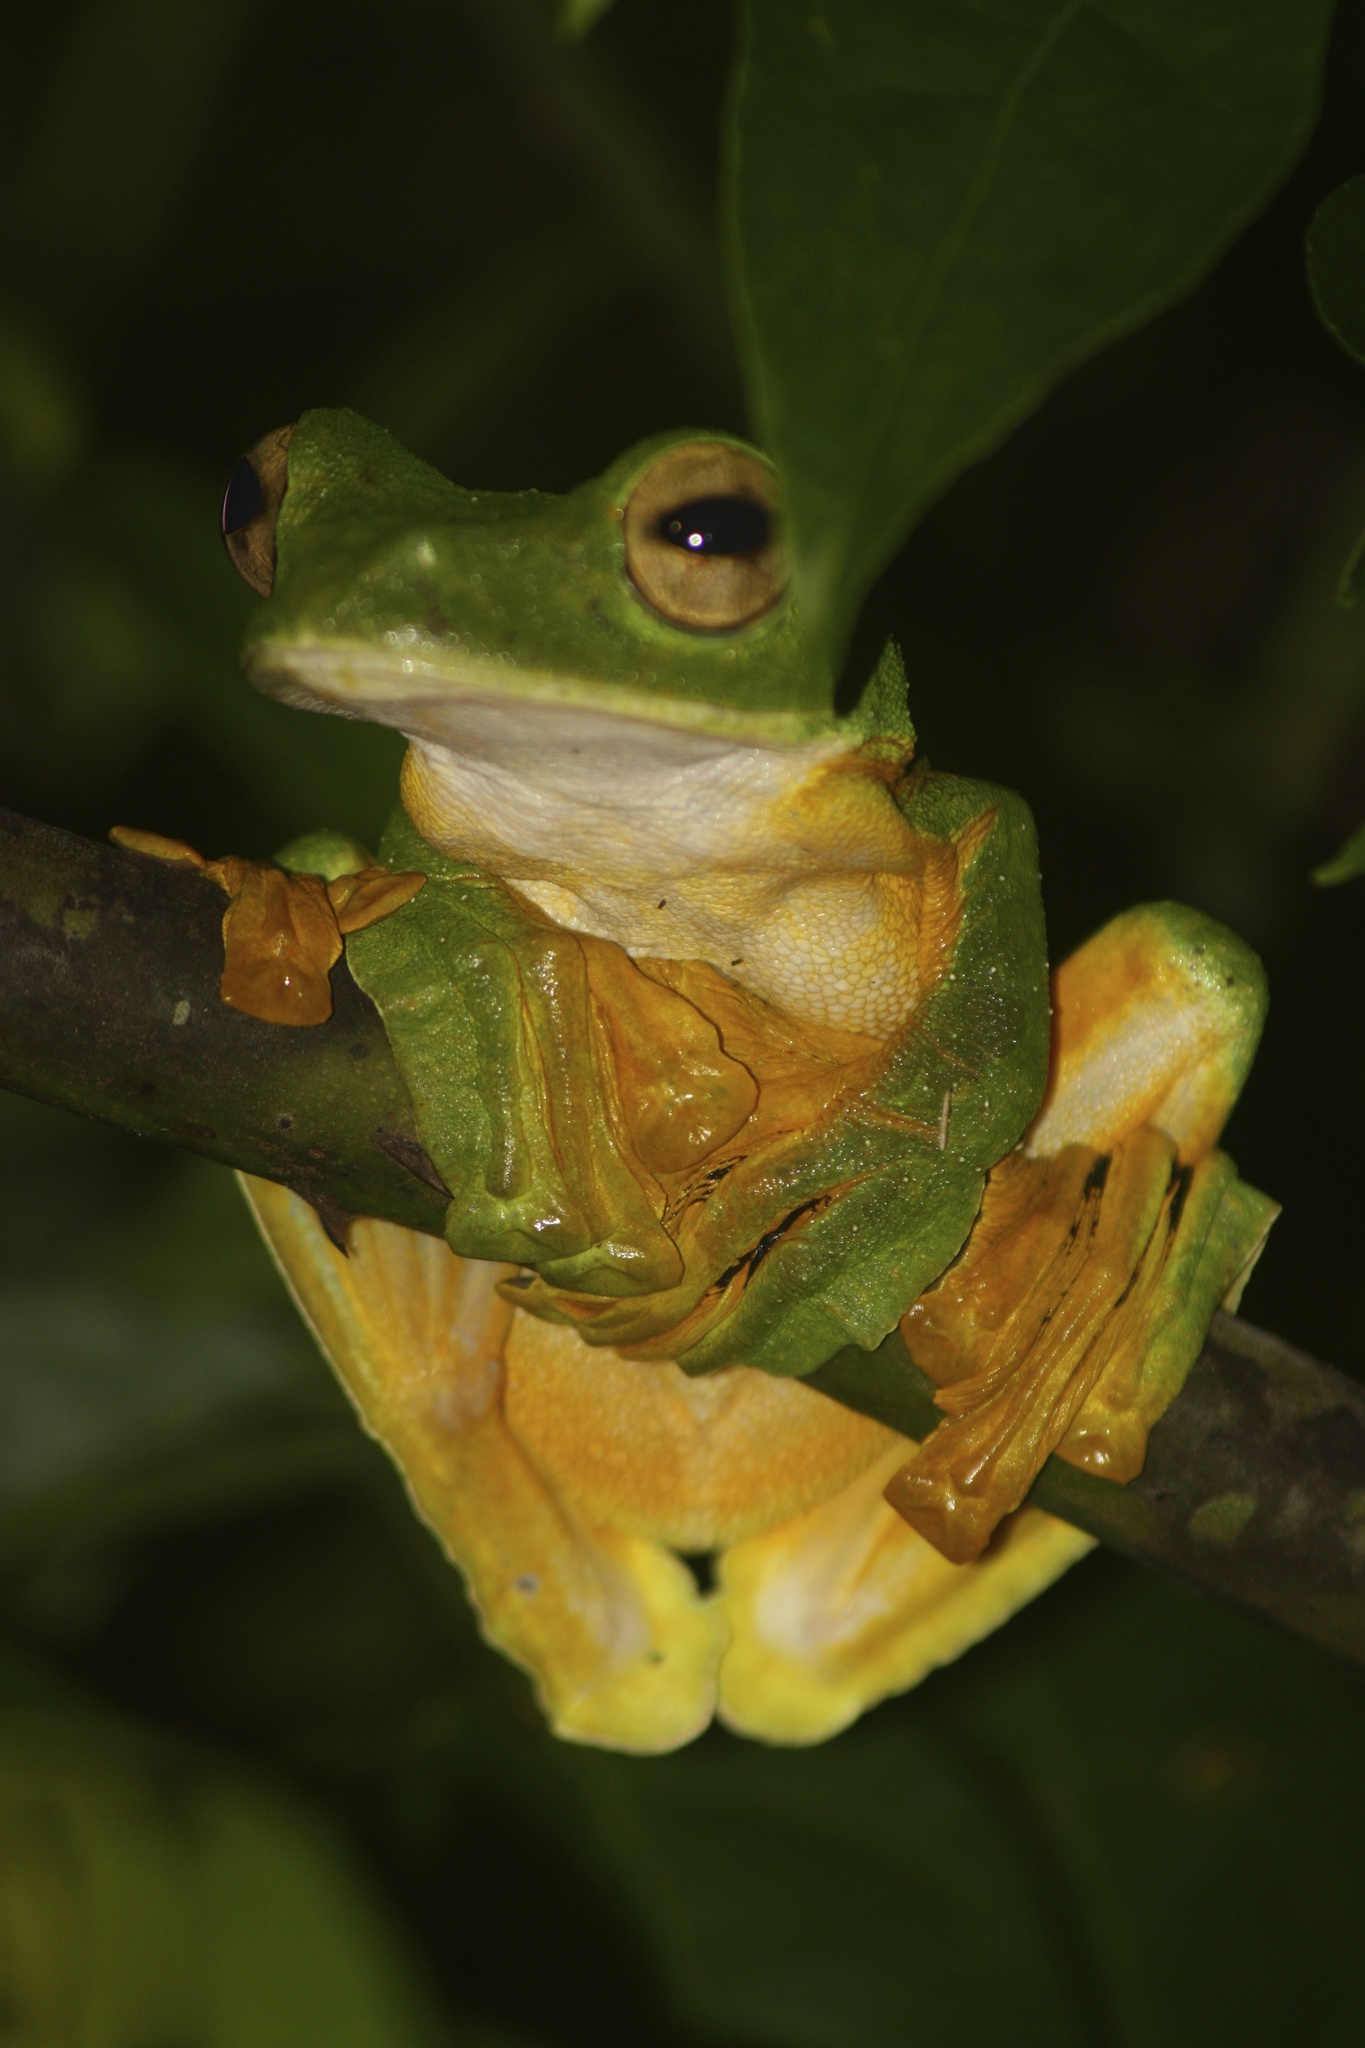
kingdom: Animalia
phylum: Chordata
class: Amphibia
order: Anura
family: Rhacophoridae
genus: Rhacophorus
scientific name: Rhacophorus nigropalmatus
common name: Wallace’s flying frog
